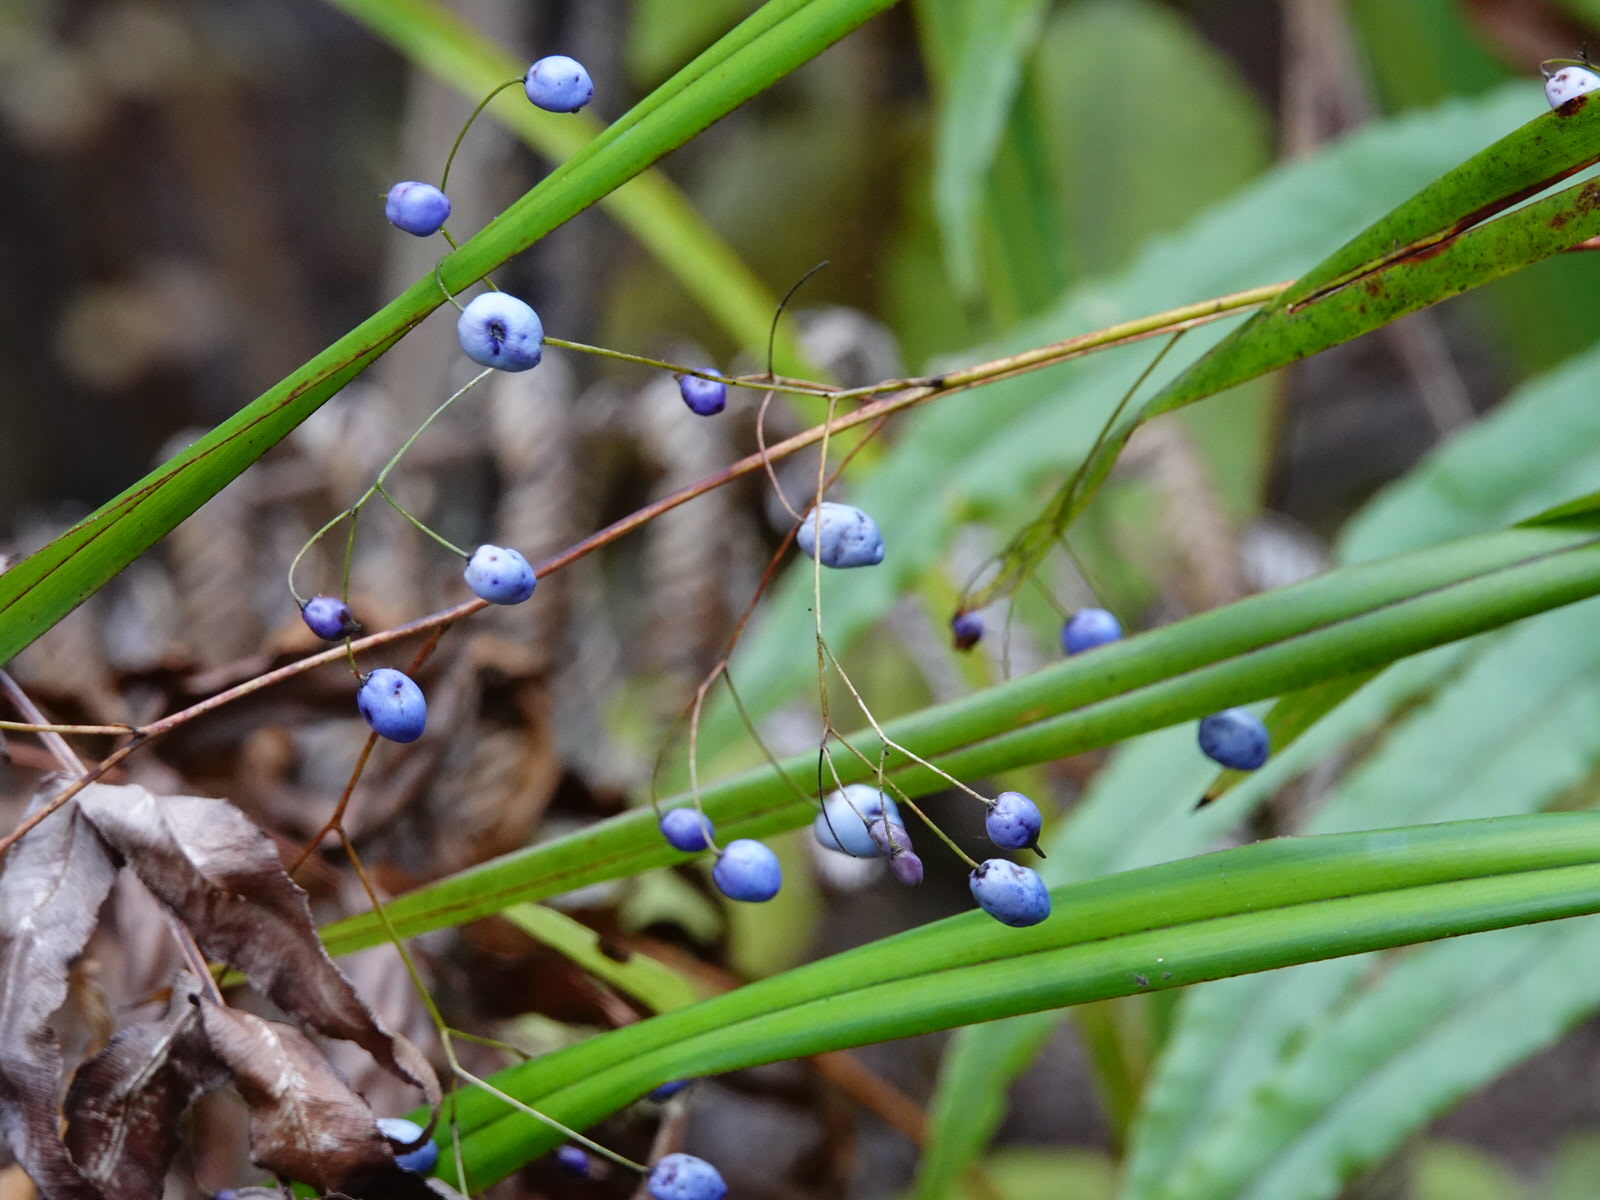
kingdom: Plantae
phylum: Tracheophyta
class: Liliopsida
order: Asparagales
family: Asphodelaceae
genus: Dianella
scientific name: Dianella nigra
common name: New zealand-blueberry
